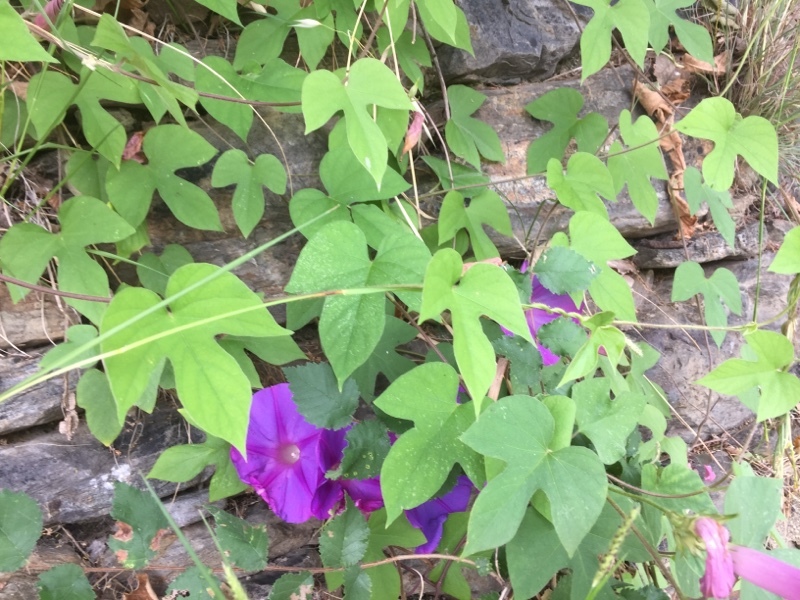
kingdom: Plantae
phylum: Tracheophyta
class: Magnoliopsida
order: Solanales
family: Convolvulaceae
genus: Ipomoea
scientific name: Ipomoea indica
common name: Blue dawnflower
